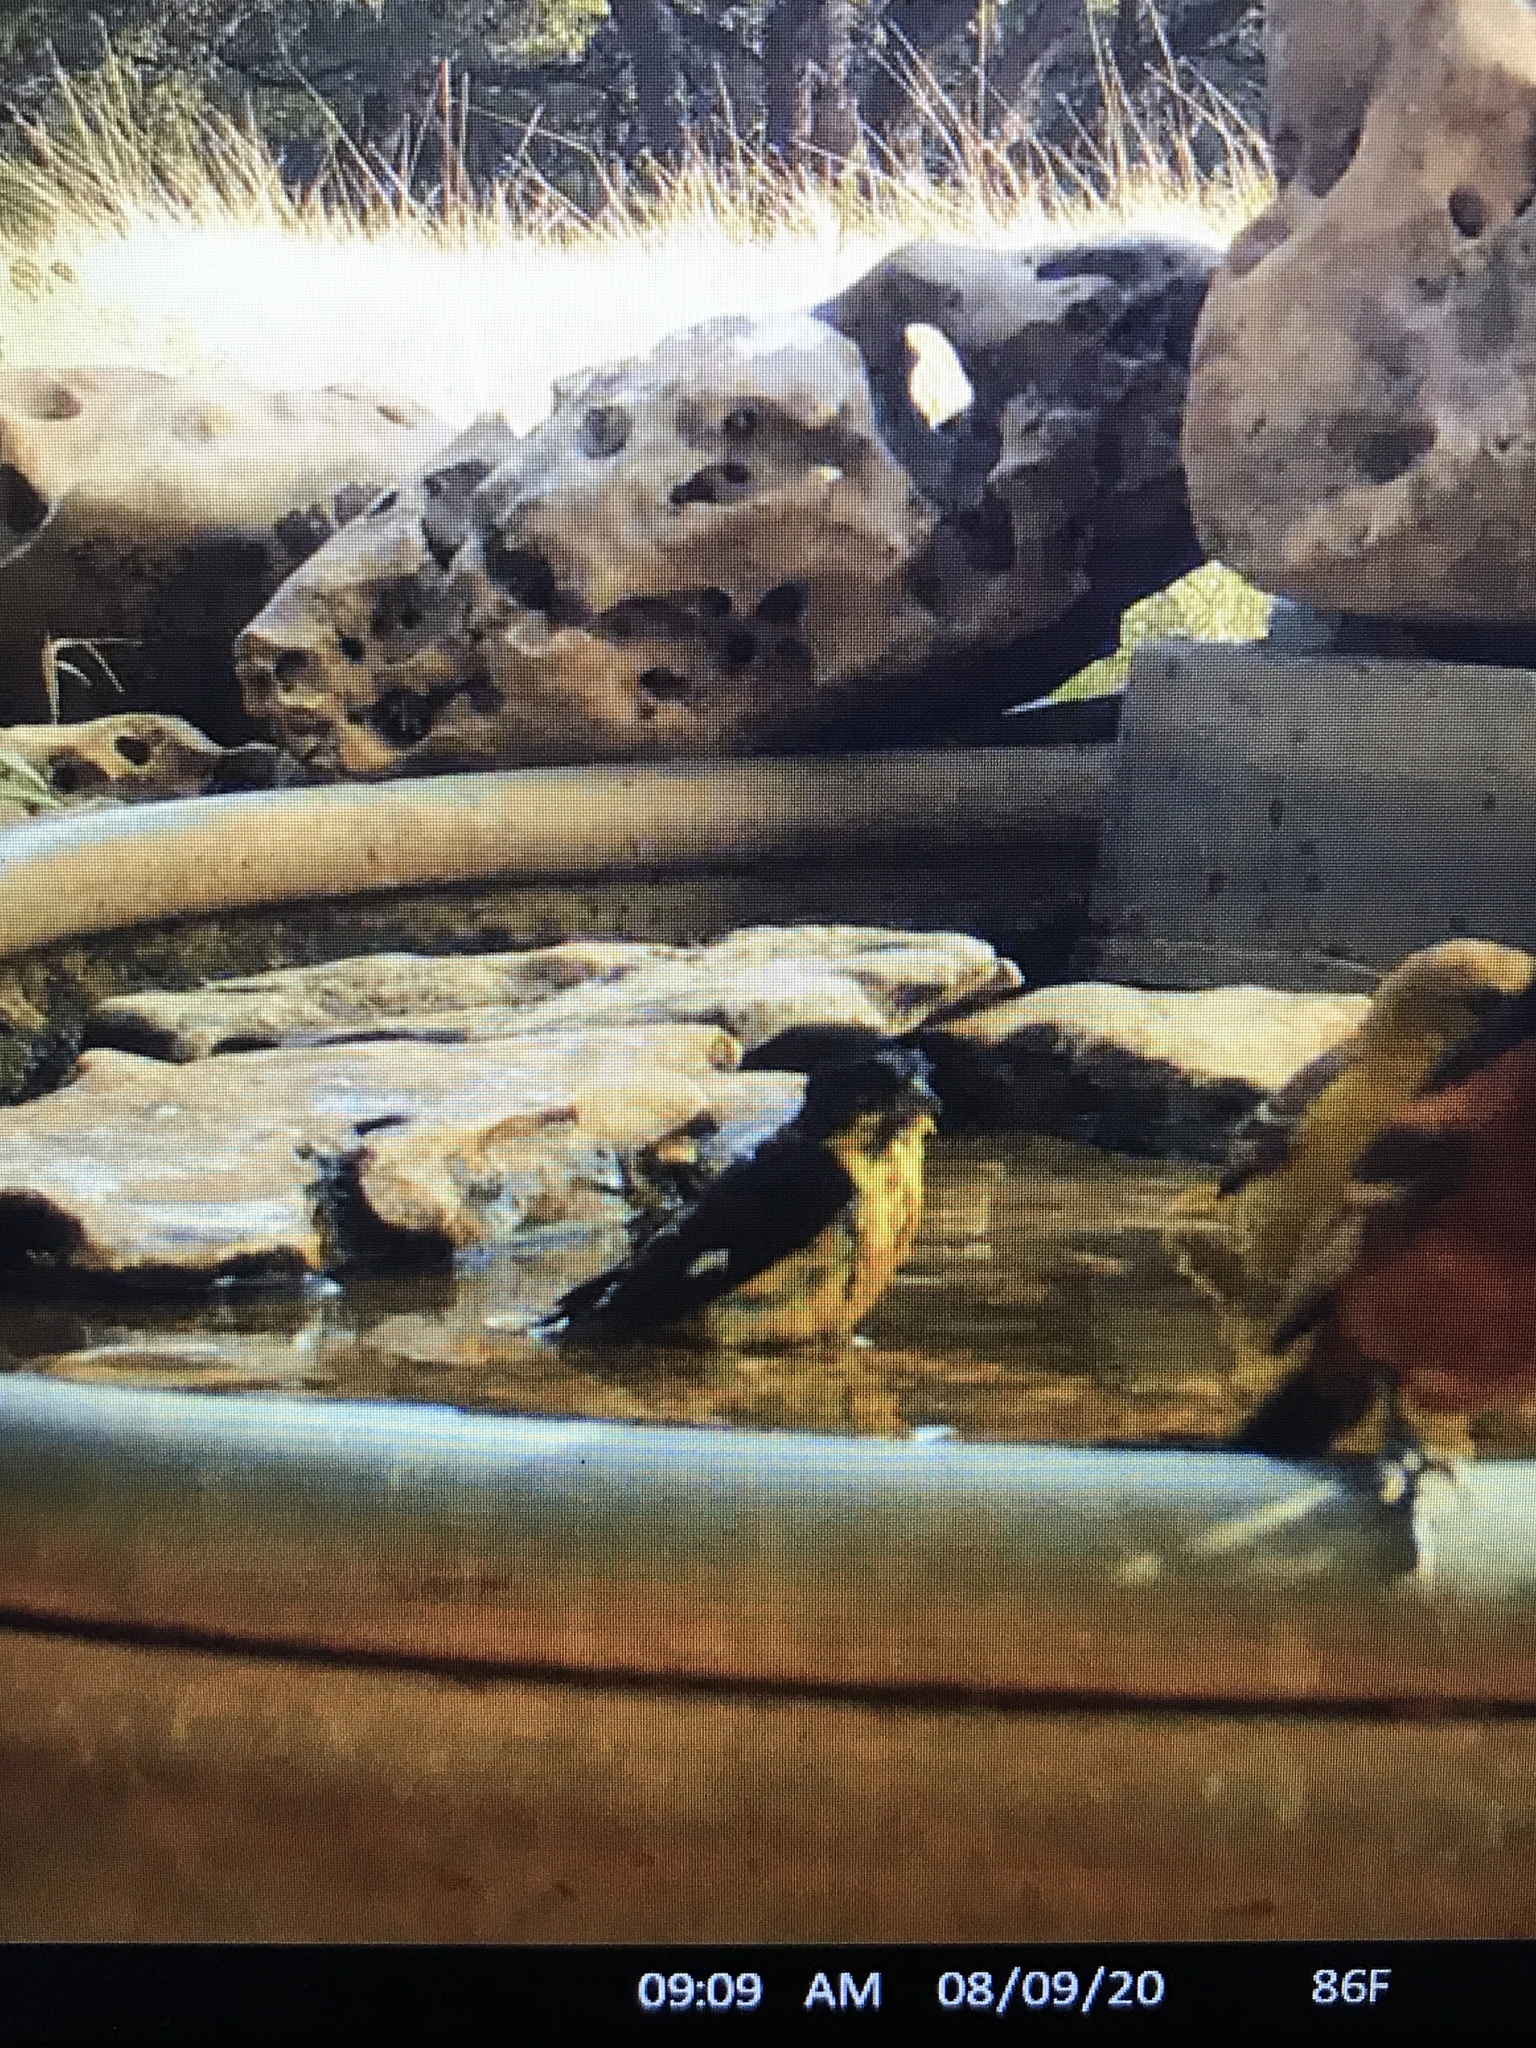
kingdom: Animalia
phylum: Chordata
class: Aves
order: Passeriformes
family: Fringillidae
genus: Spinus
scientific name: Spinus psaltria
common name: Lesser goldfinch
